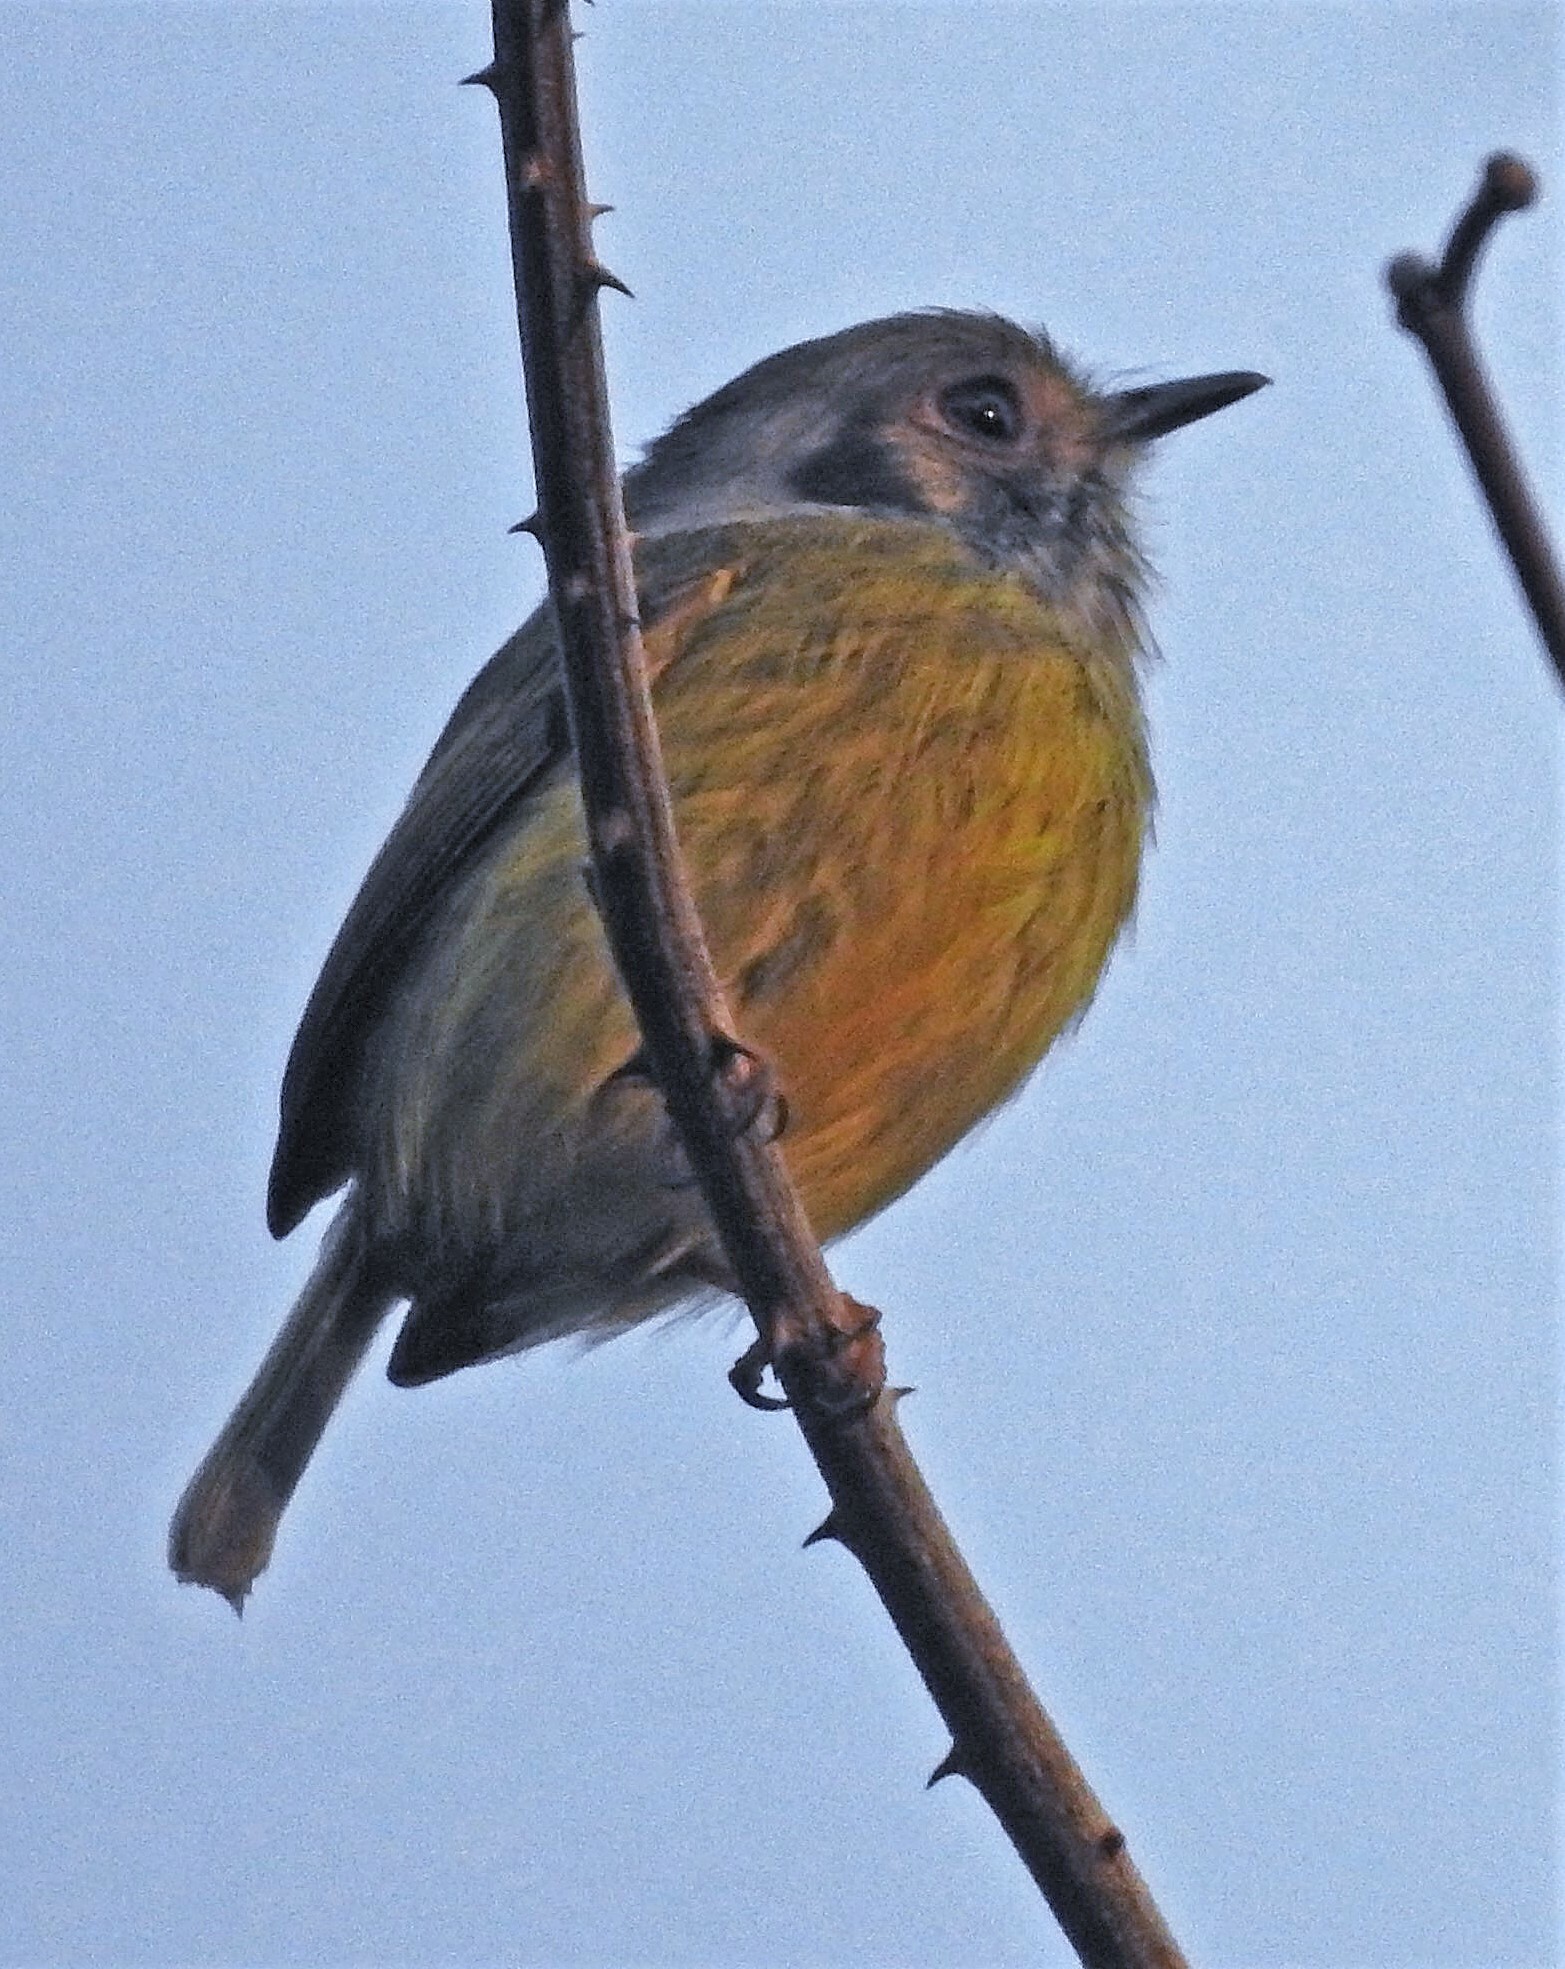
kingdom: Animalia
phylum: Chordata
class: Aves
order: Passeriformes
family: Tyrannidae
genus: Myiornis
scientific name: Myiornis auricularis
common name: Eared pygmy tyrant
